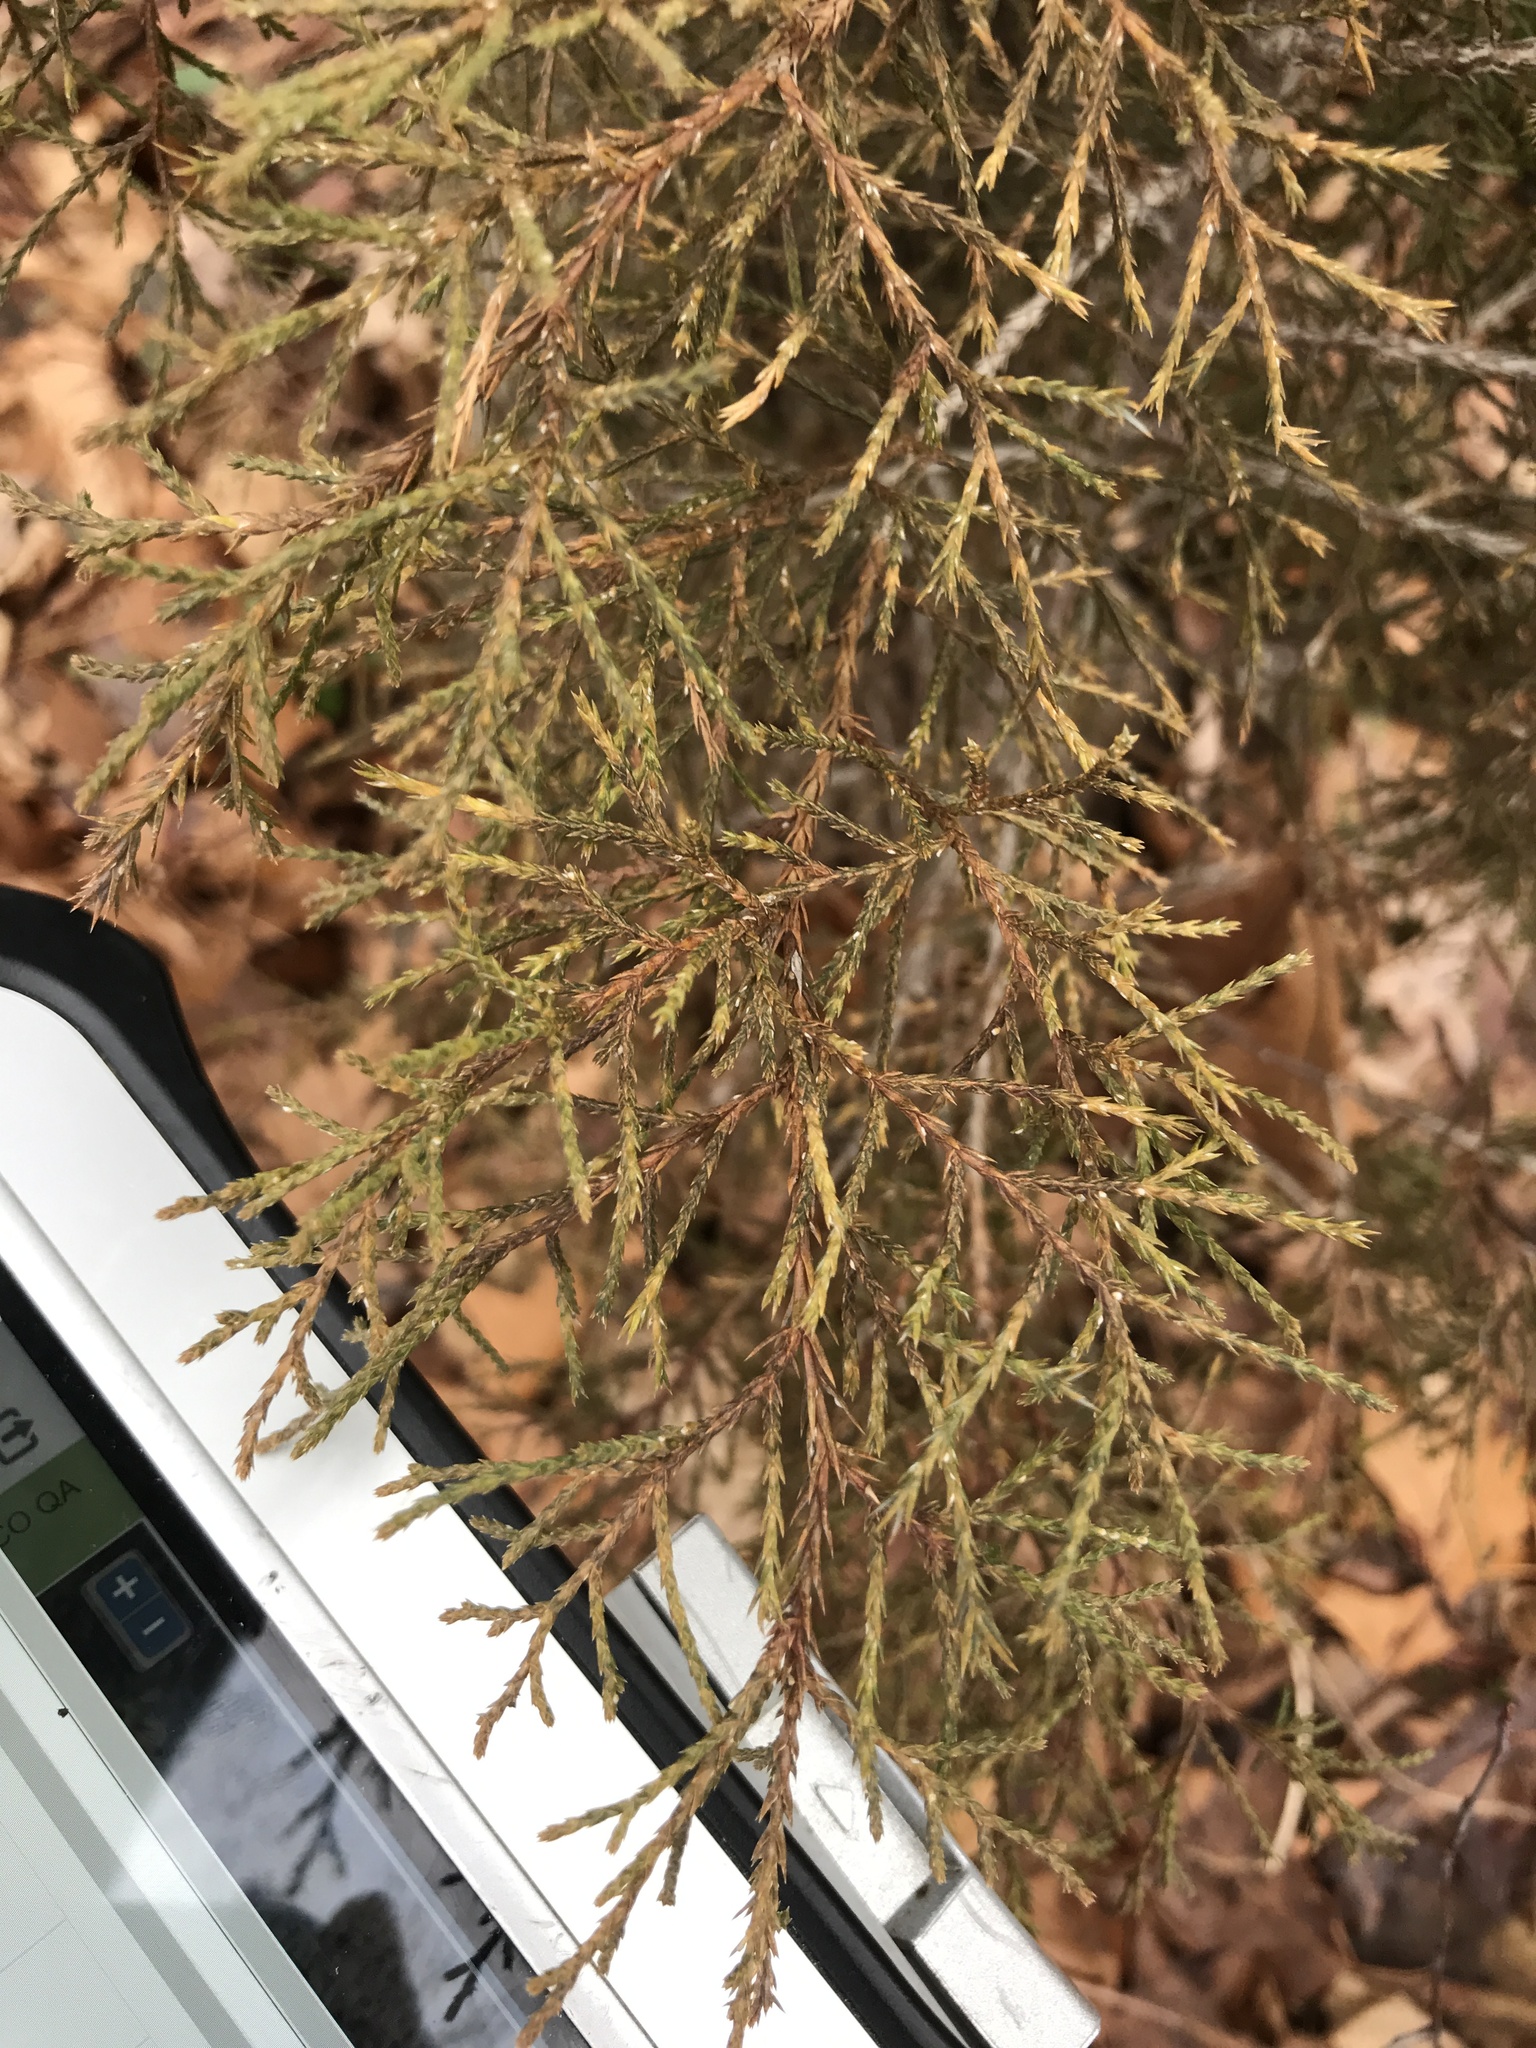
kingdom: Plantae
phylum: Tracheophyta
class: Pinopsida
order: Pinales
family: Cupressaceae
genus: Juniperus
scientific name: Juniperus virginiana
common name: Red juniper
